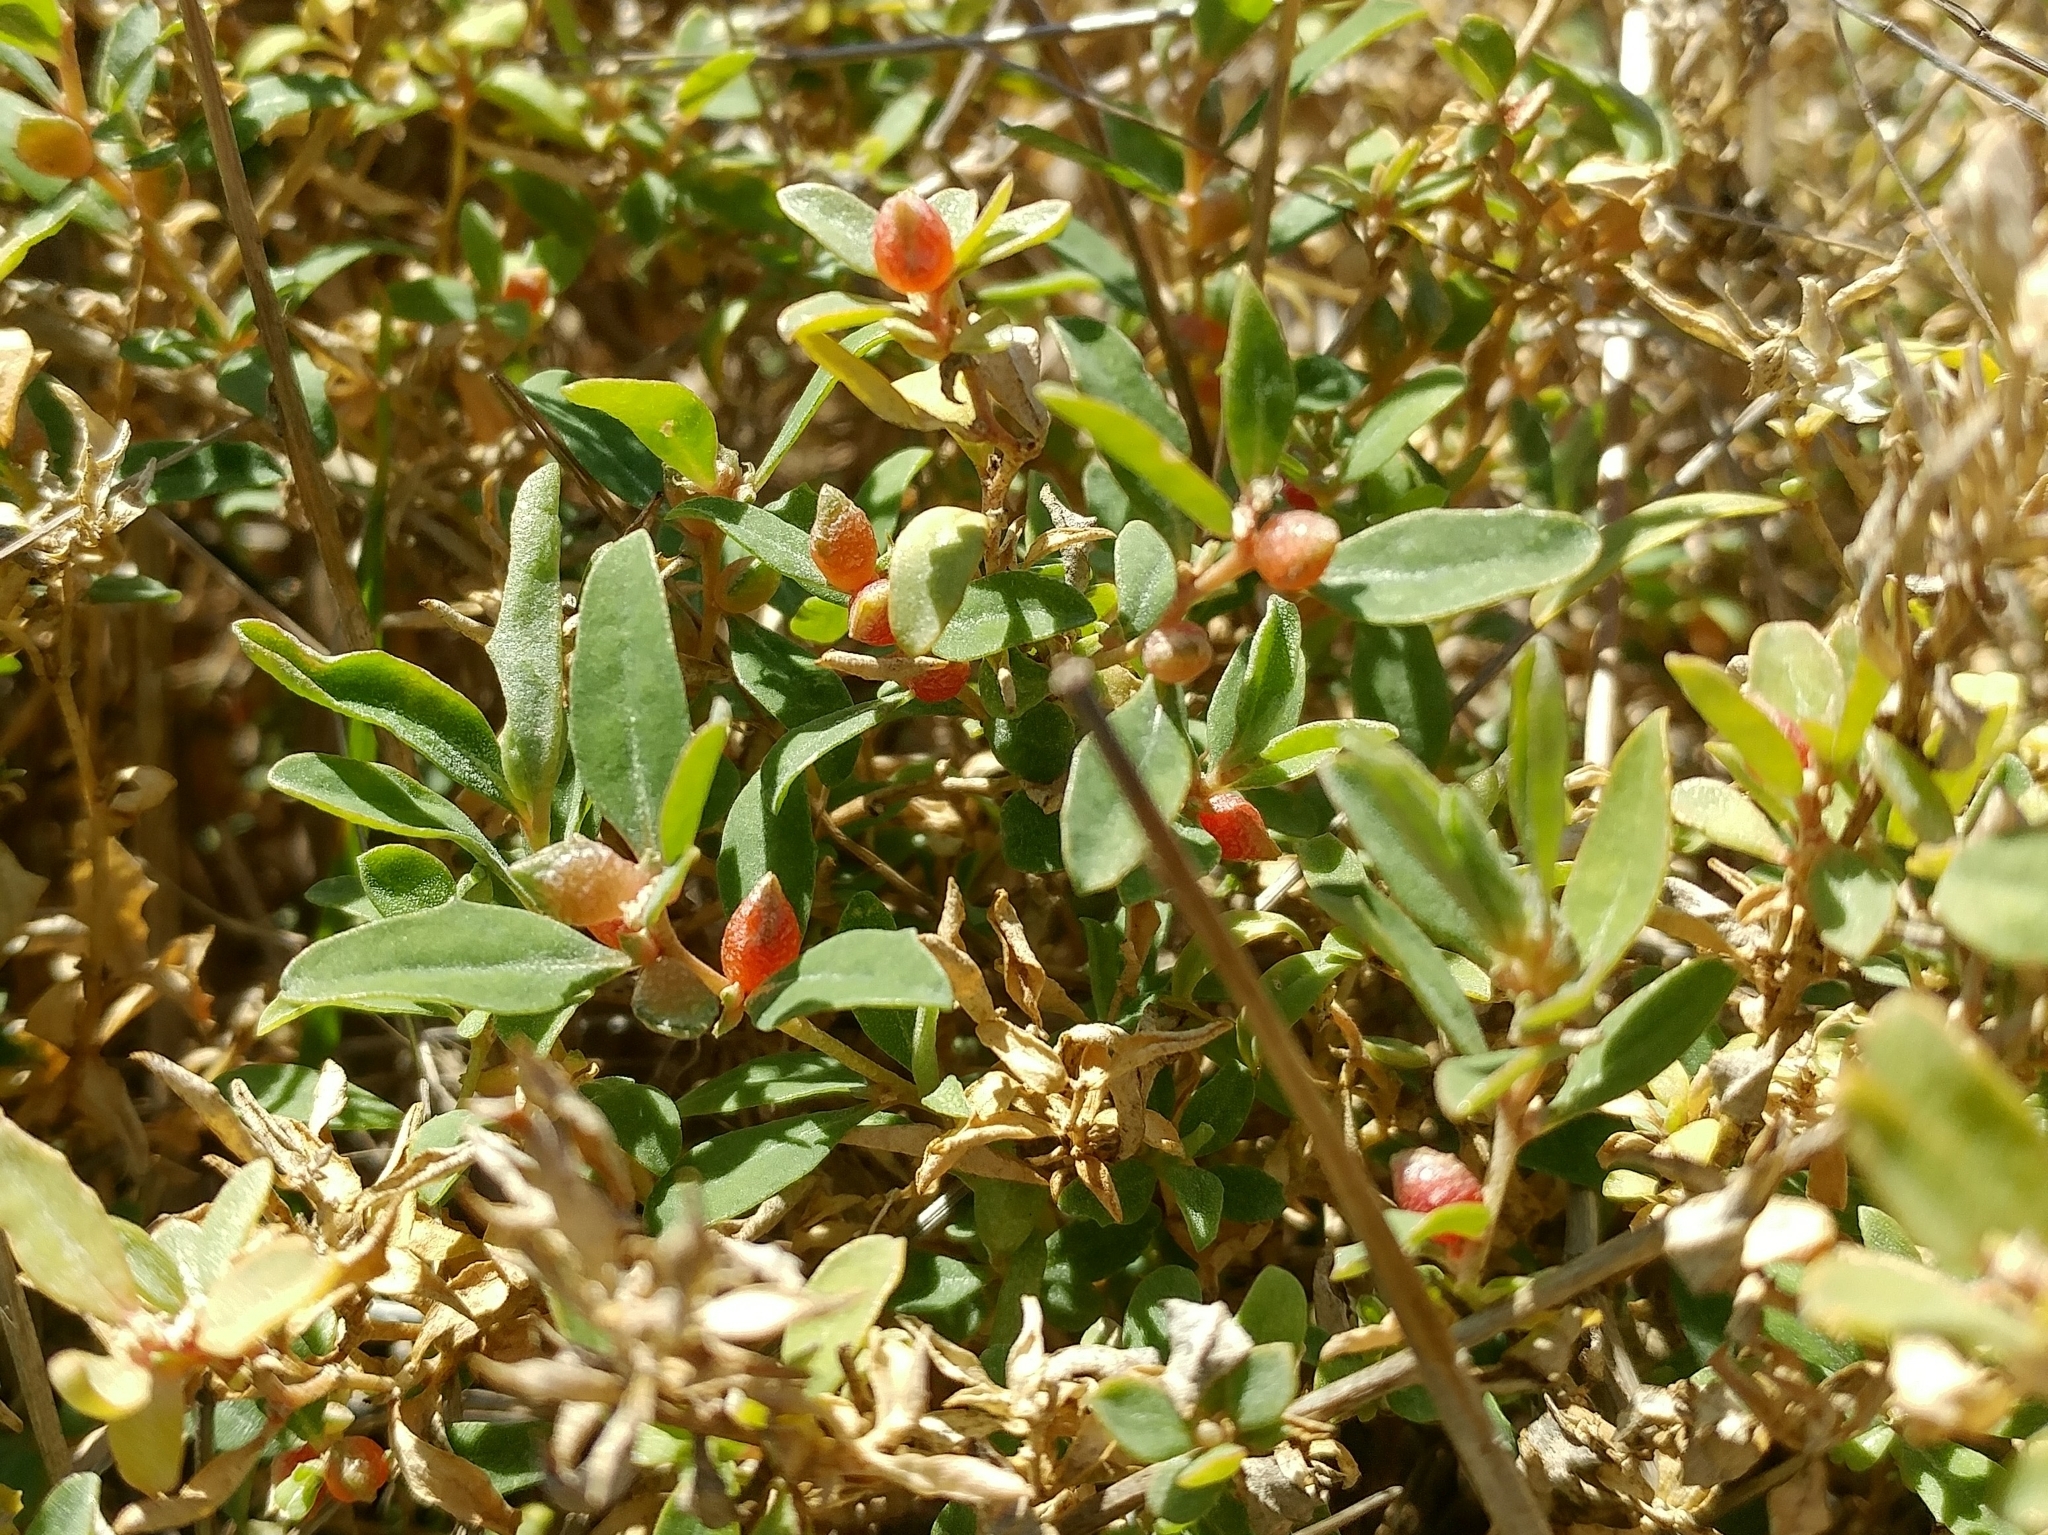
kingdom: Plantae
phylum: Tracheophyta
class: Magnoliopsida
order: Caryophyllales
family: Amaranthaceae
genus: Atriplex
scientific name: Atriplex semibaccata
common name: Australian saltbush
